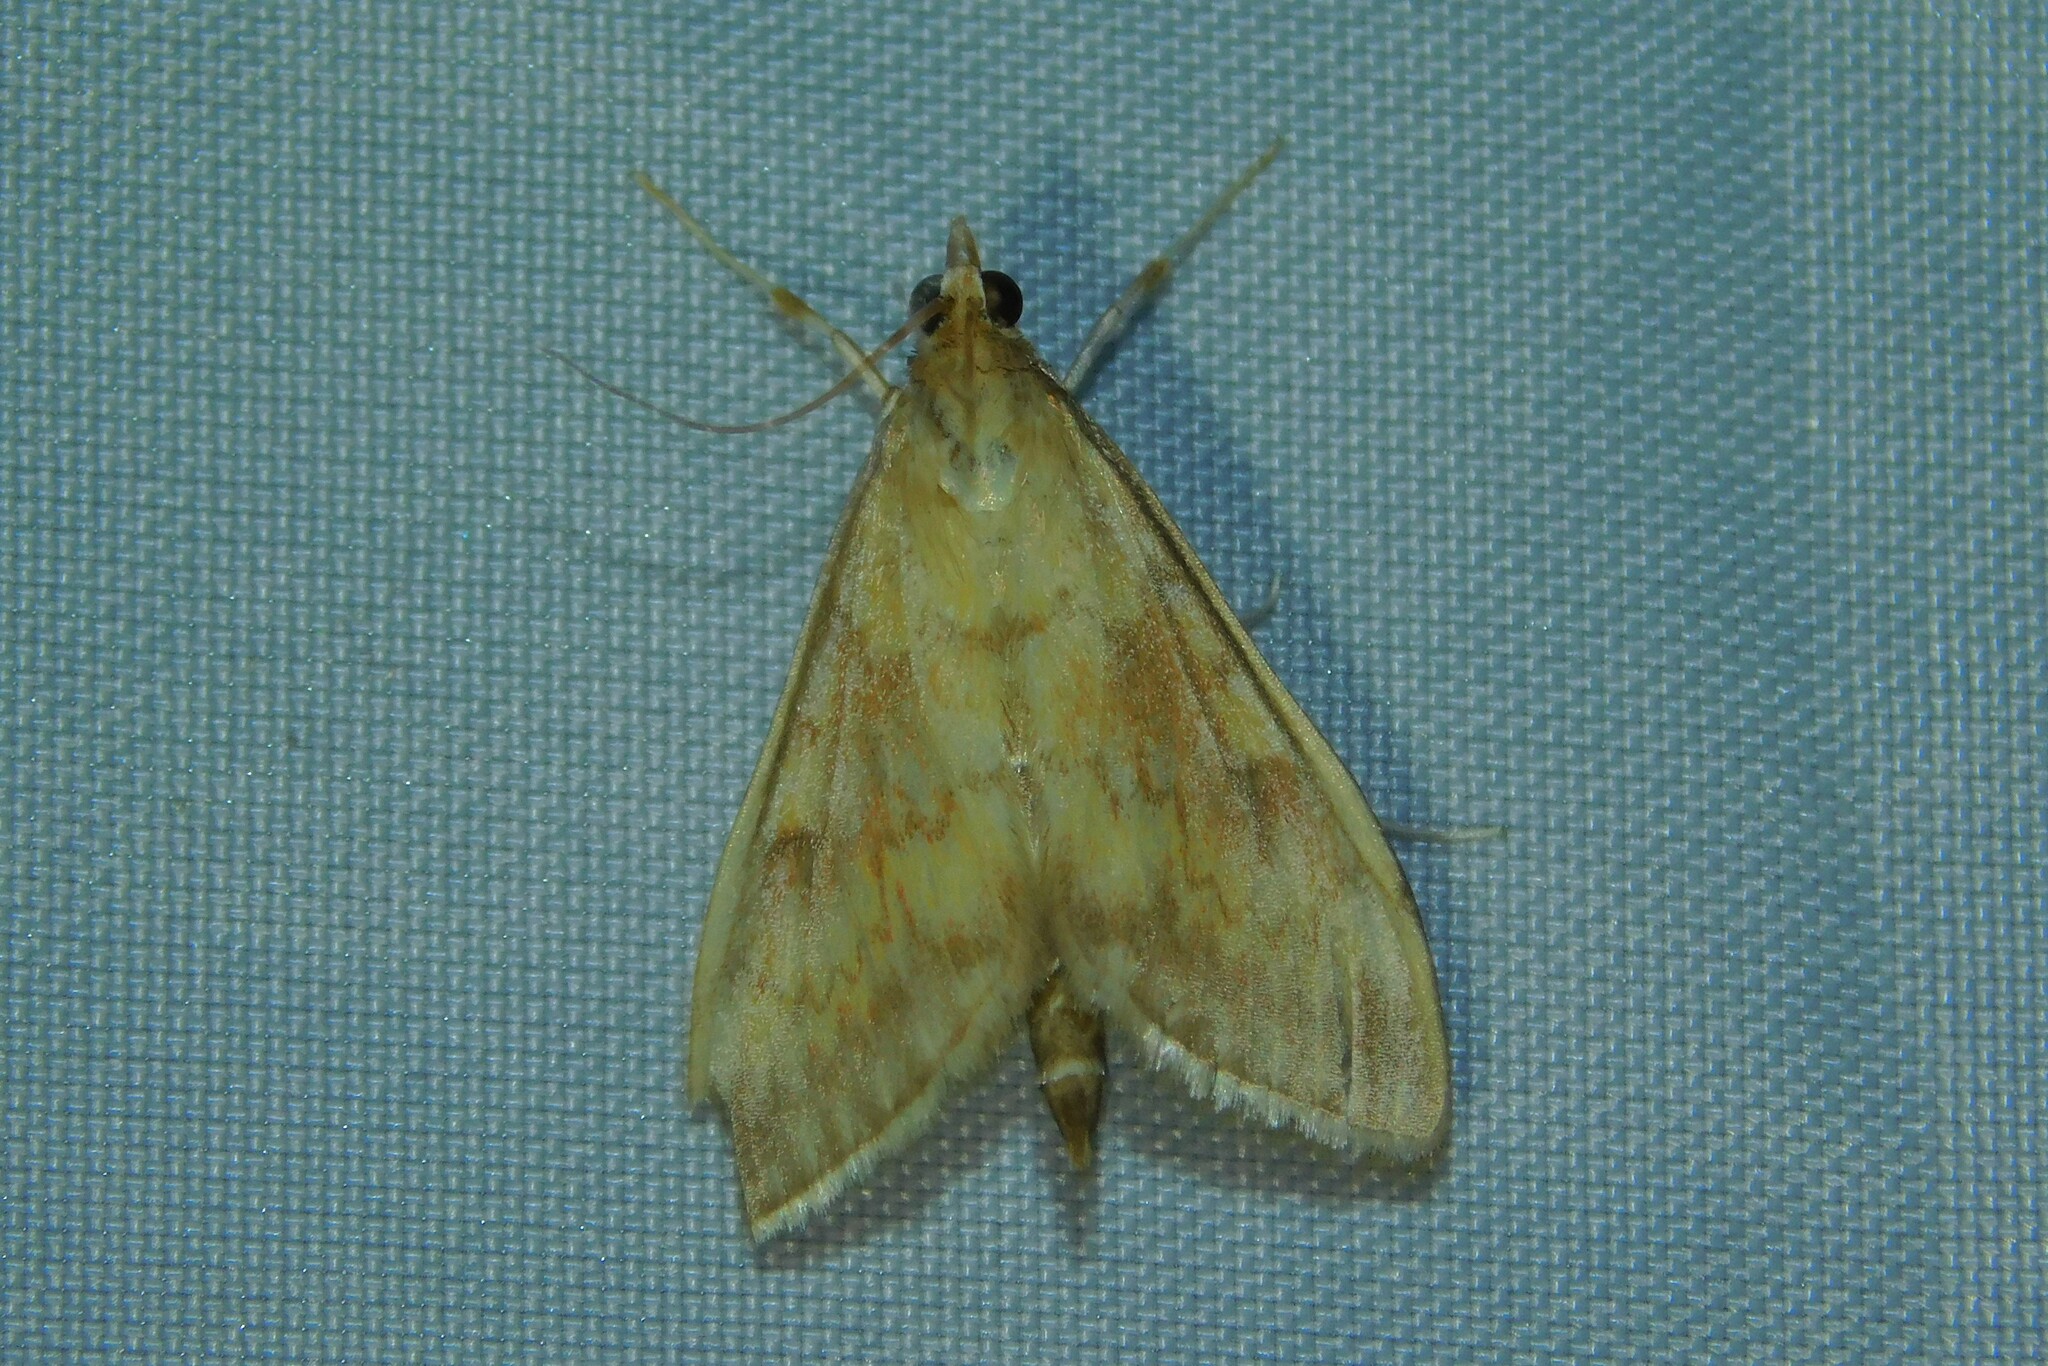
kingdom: Animalia
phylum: Arthropoda
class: Insecta
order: Lepidoptera
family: Crambidae
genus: Ostrinia
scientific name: Ostrinia nubilalis
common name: European corn borer
